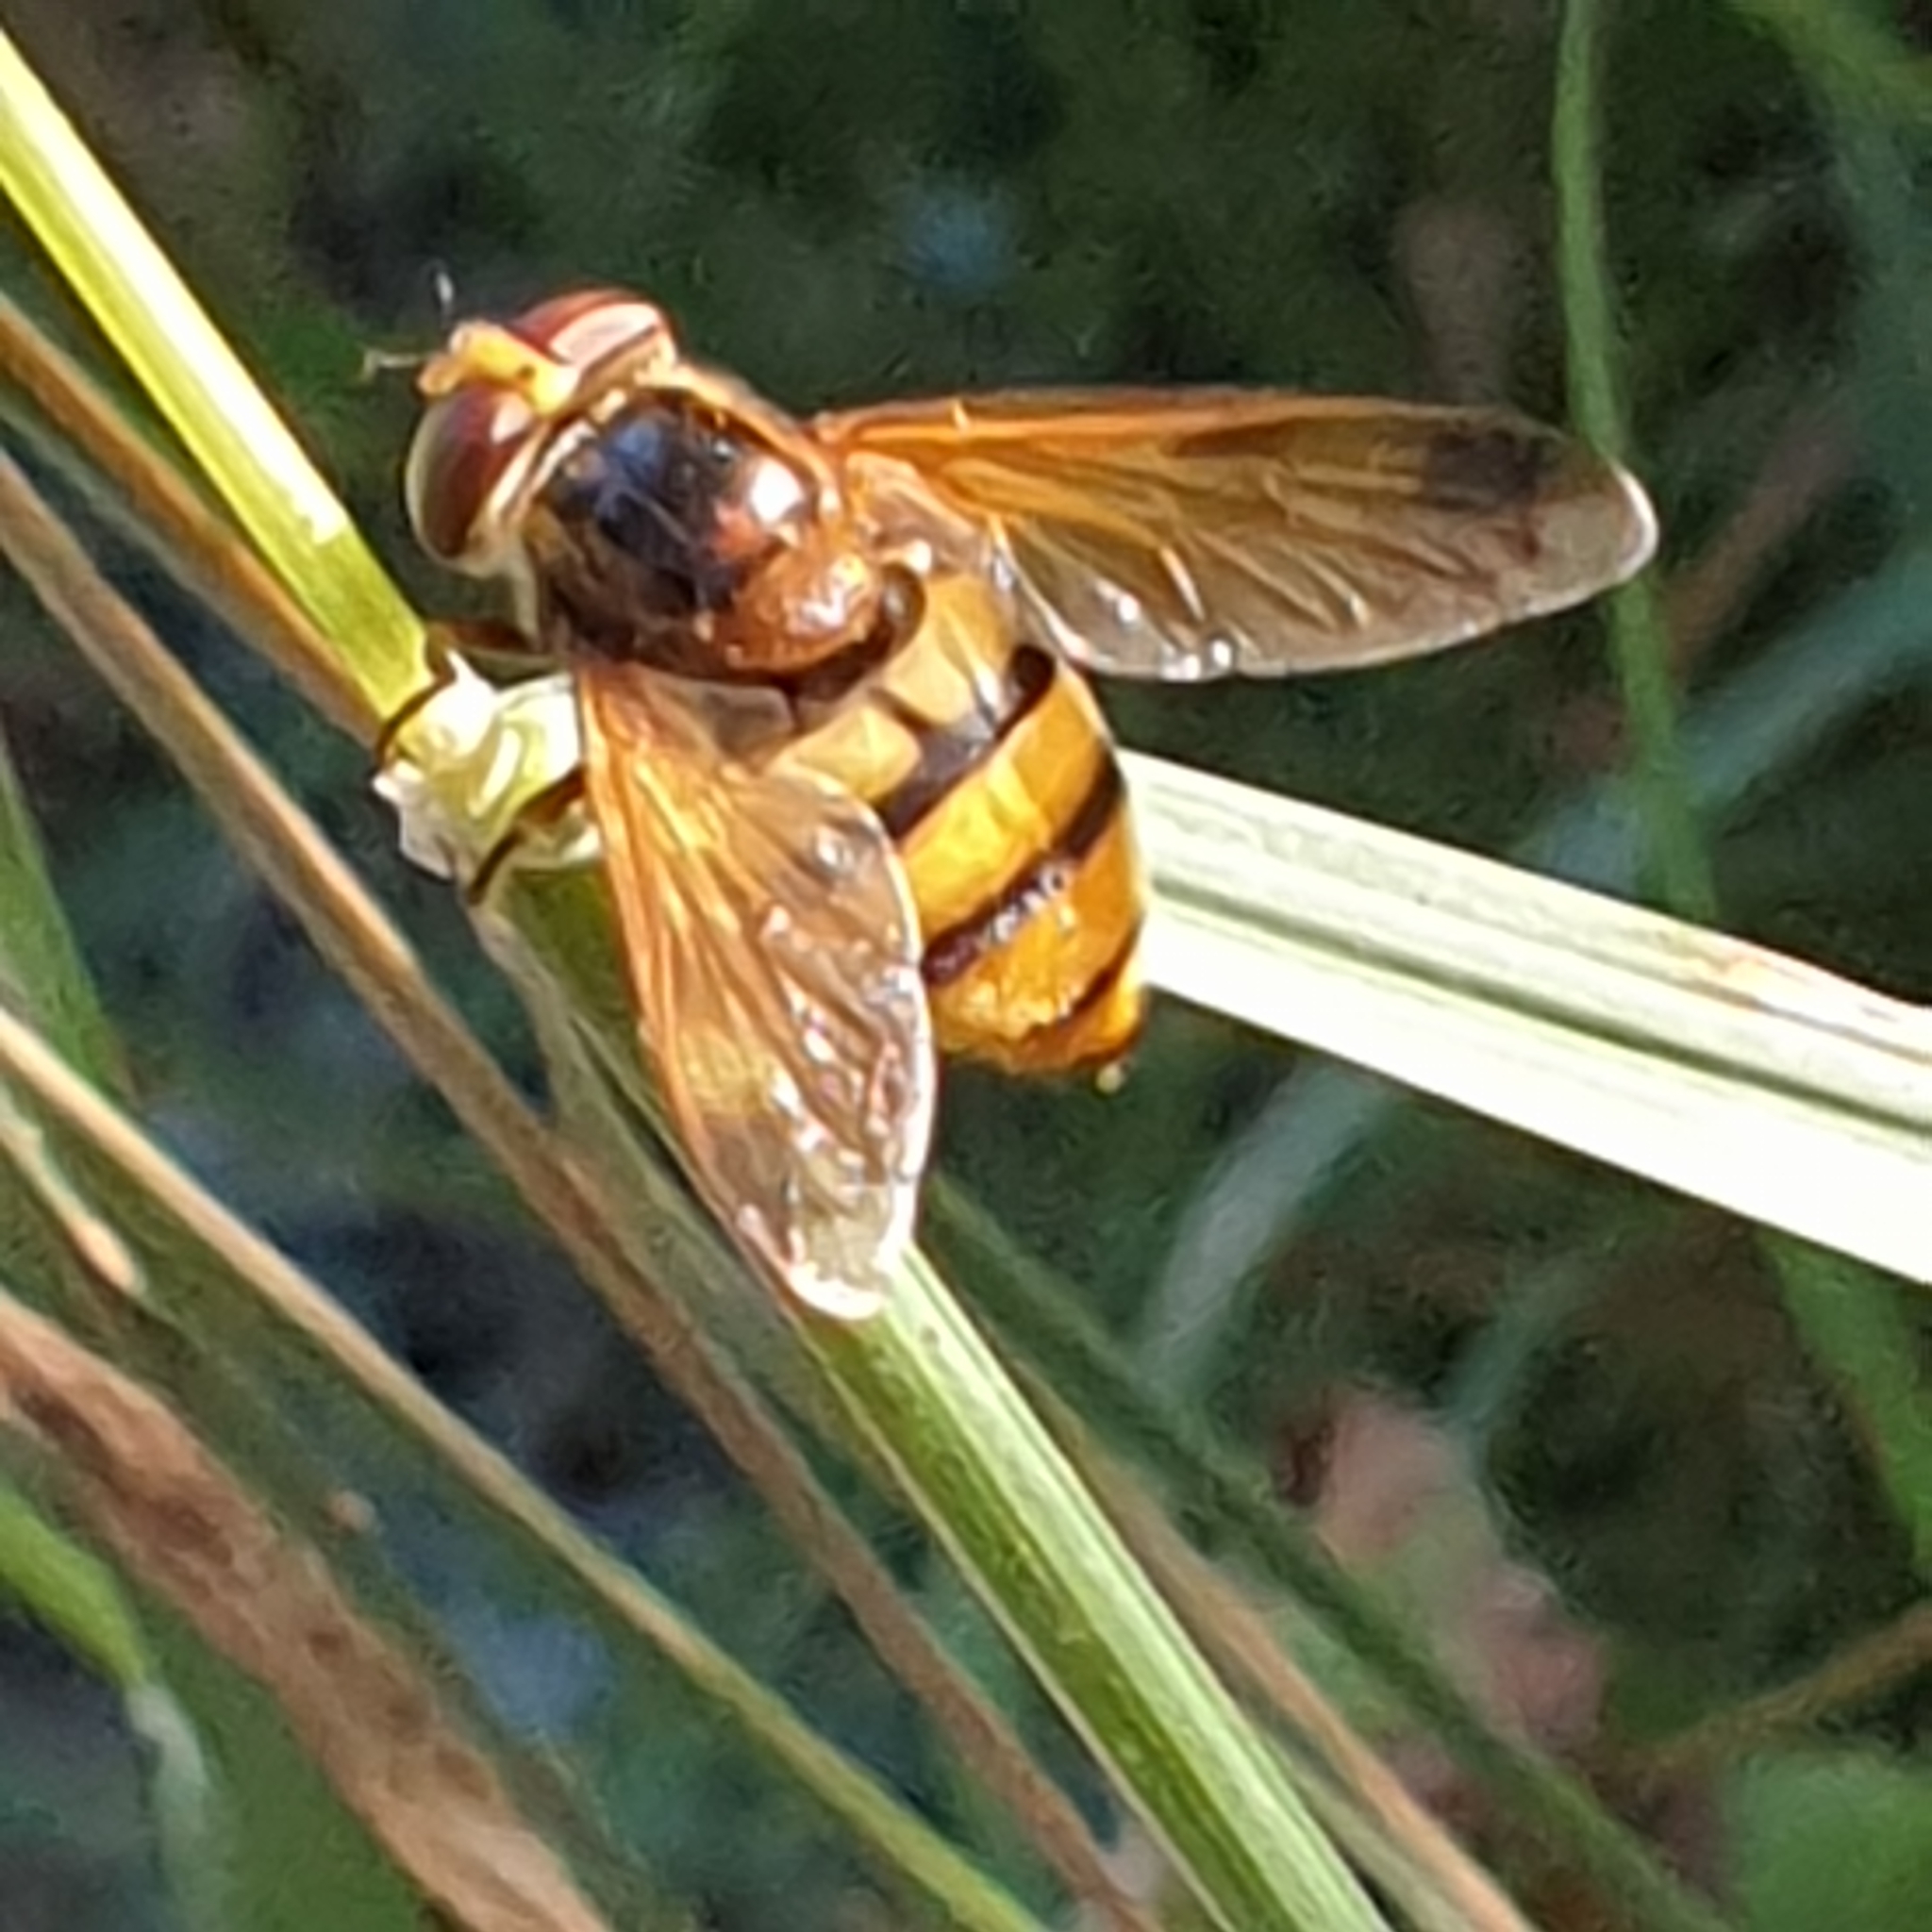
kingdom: Animalia
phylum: Arthropoda
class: Insecta
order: Diptera
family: Syrphidae
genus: Volucella
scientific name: Volucella inanis
